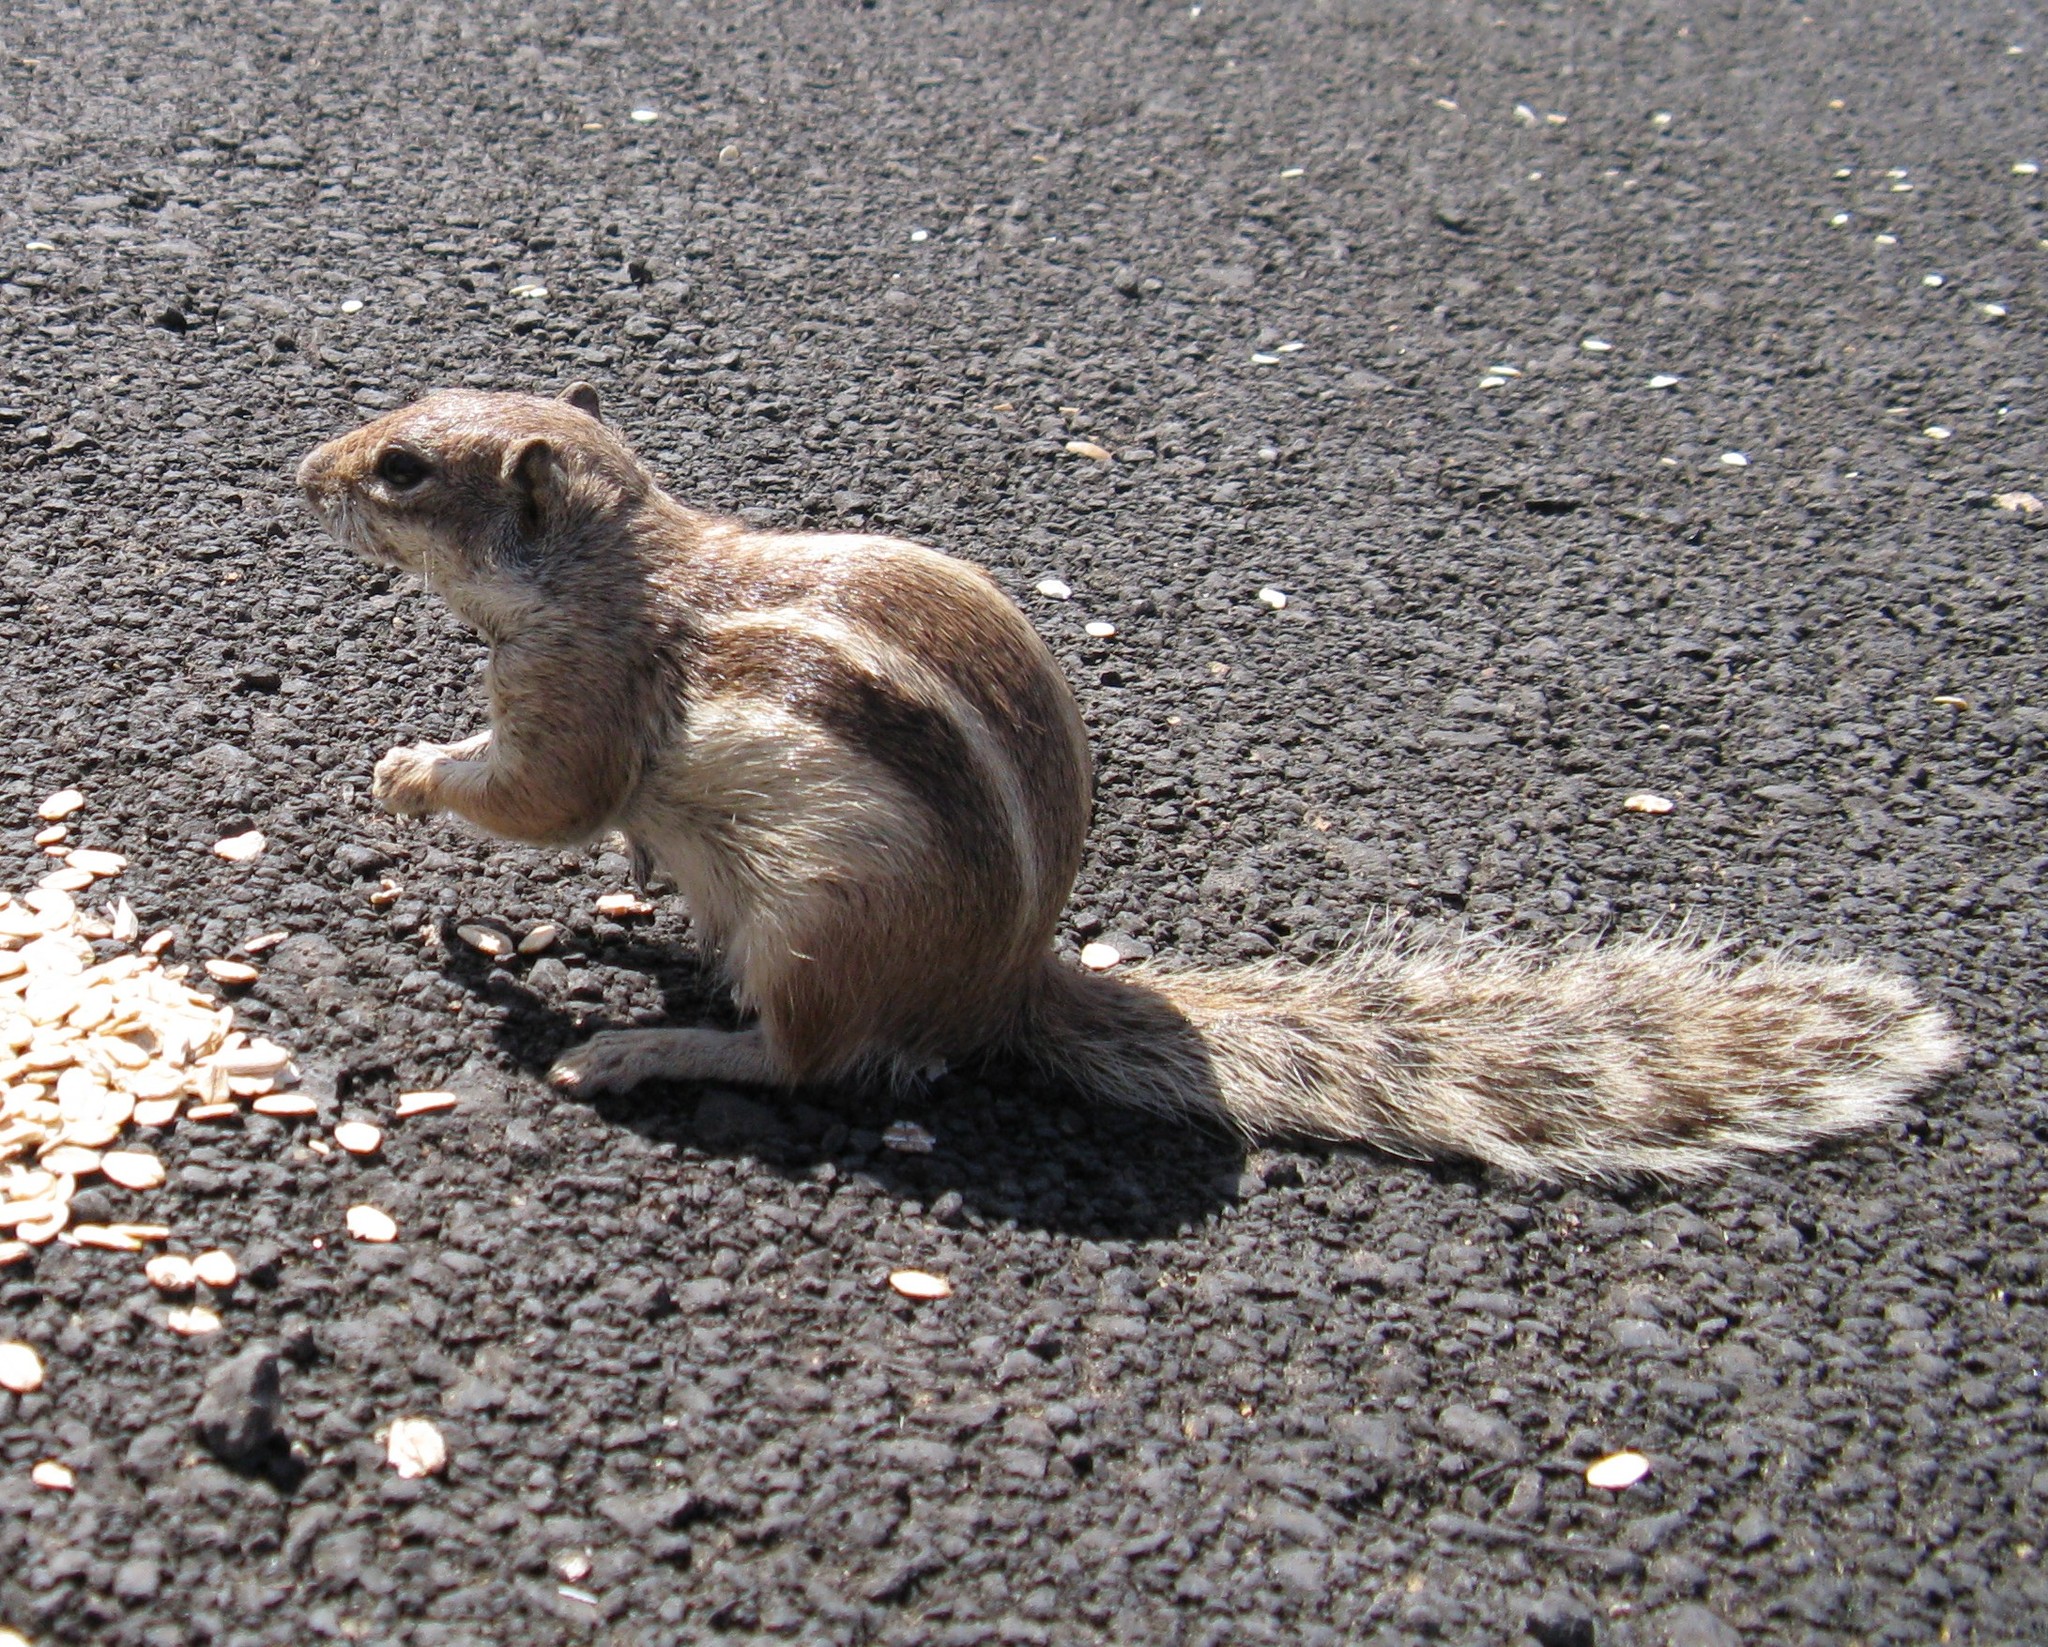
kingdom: Animalia
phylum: Chordata
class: Mammalia
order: Rodentia
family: Sciuridae
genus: Atlantoxerus
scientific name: Atlantoxerus getulus
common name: Barbary ground squirrel
